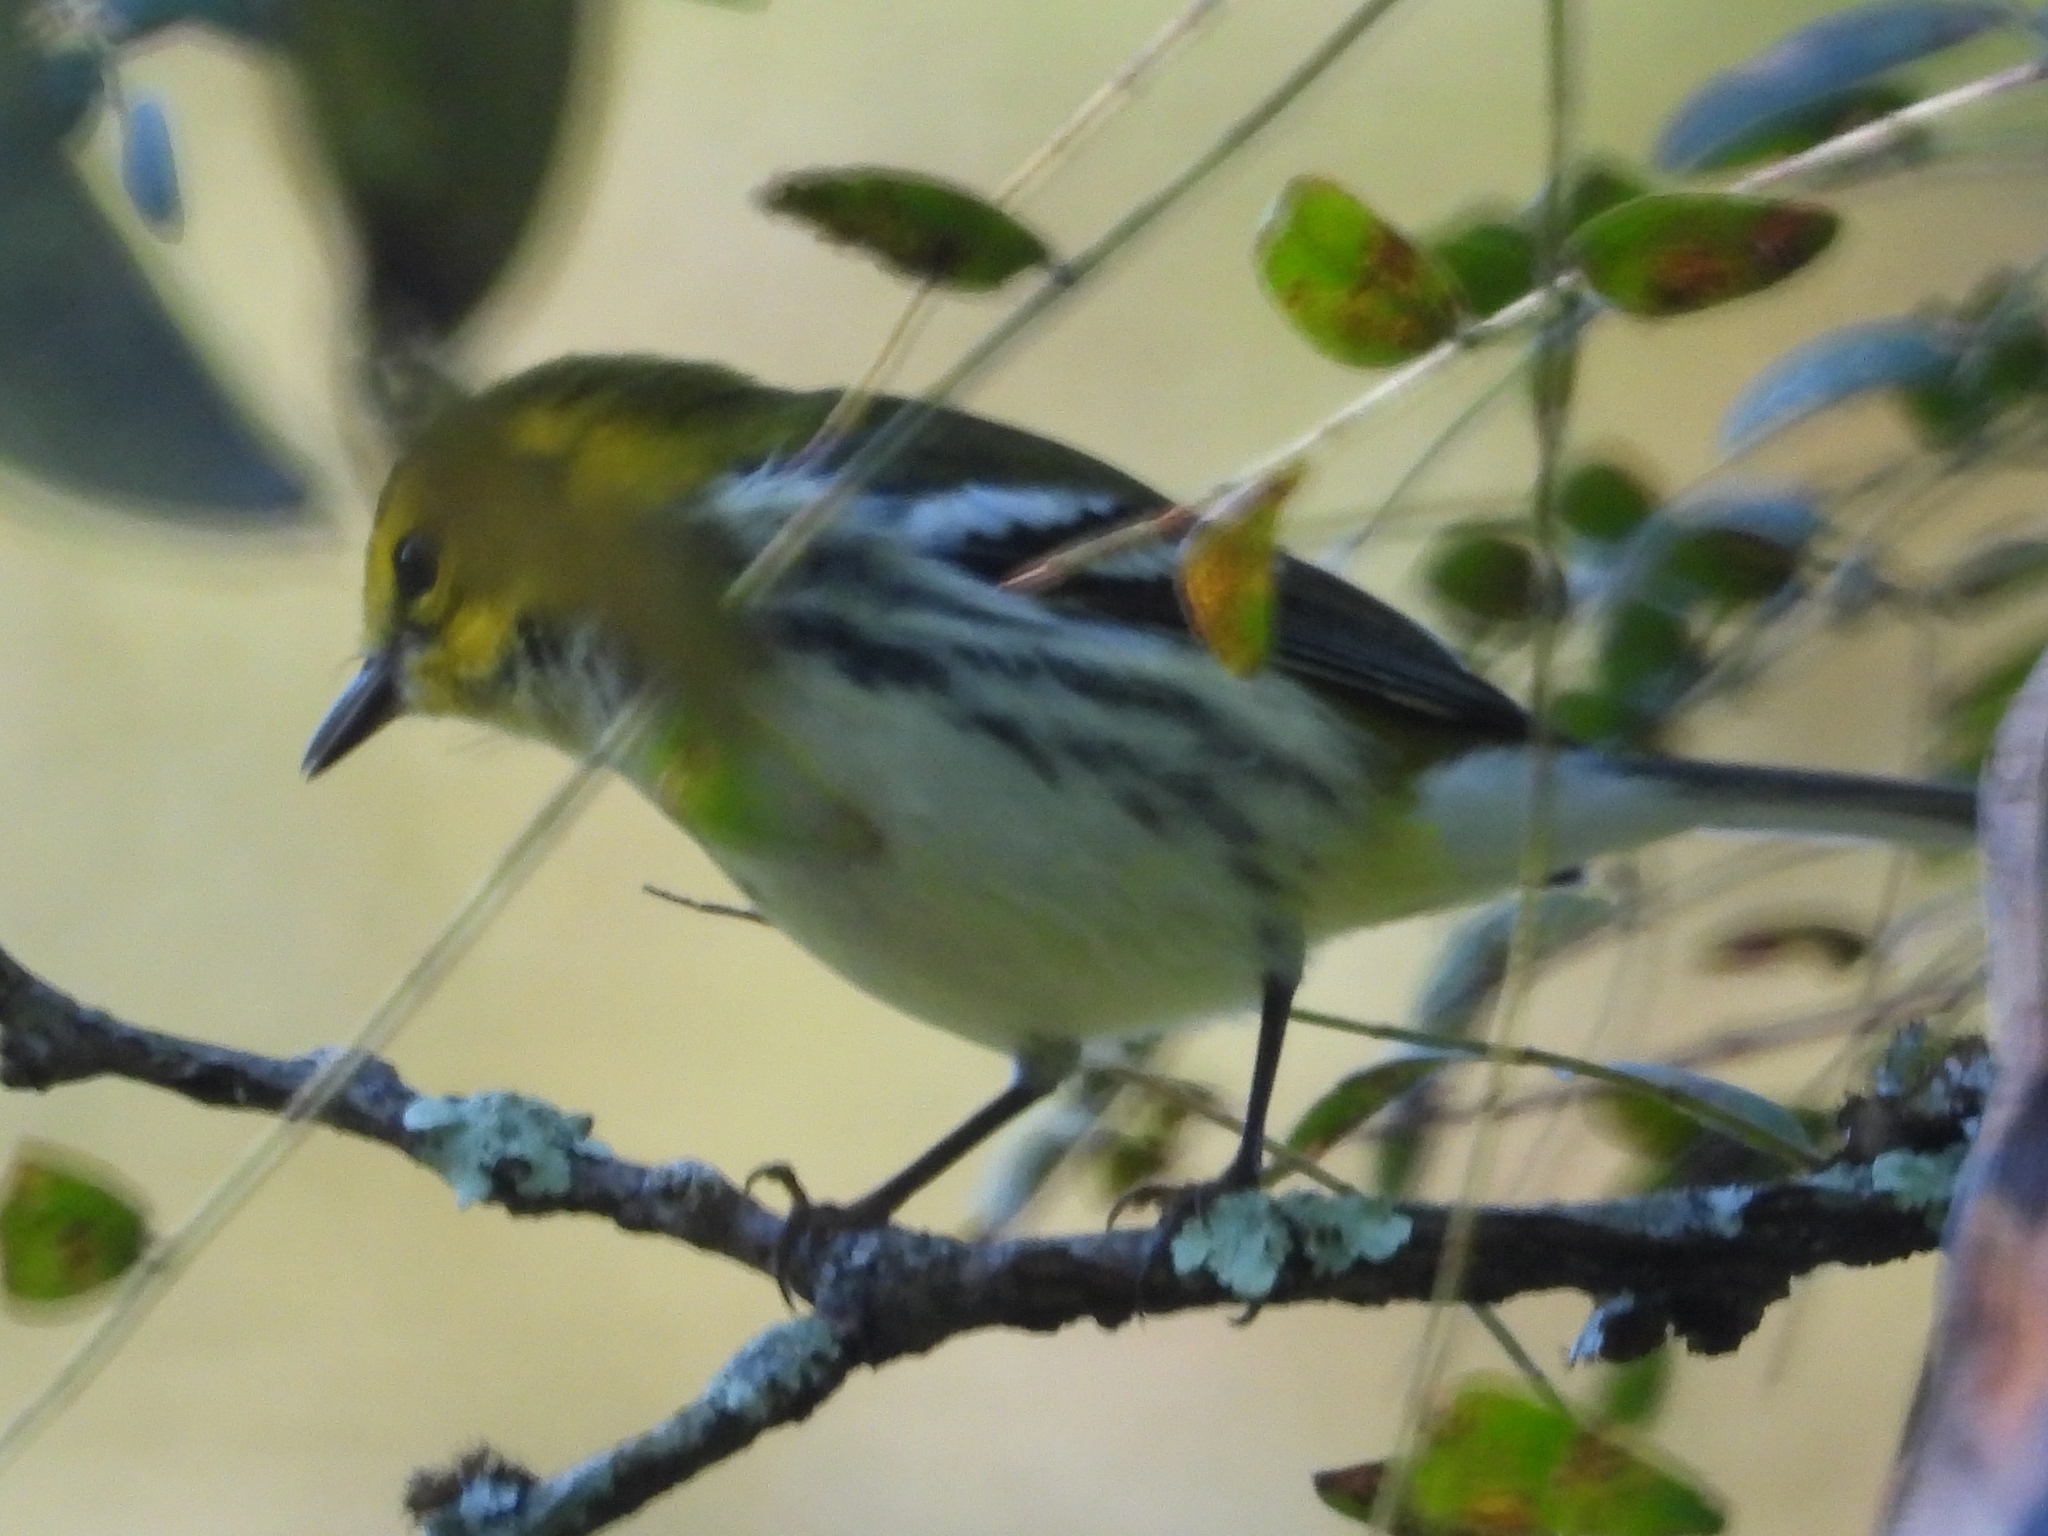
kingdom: Animalia
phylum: Chordata
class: Aves
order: Passeriformes
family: Parulidae
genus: Setophaga
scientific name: Setophaga virens
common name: Black-throated green warbler
